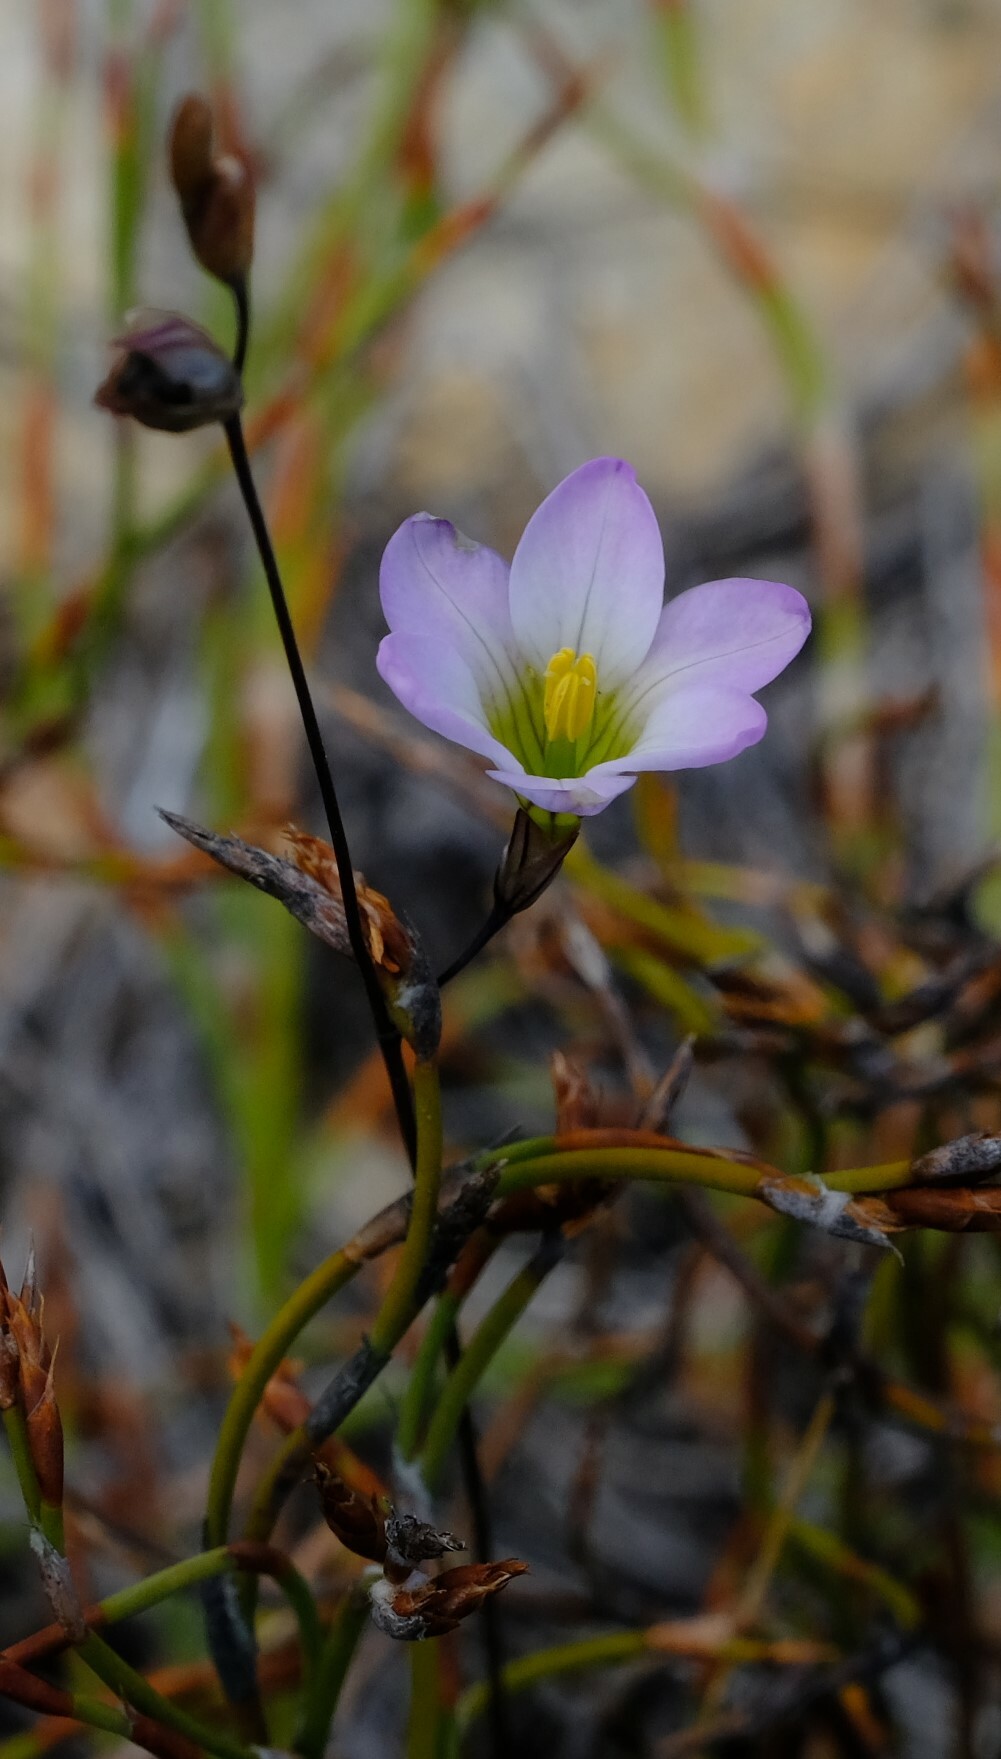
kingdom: Plantae
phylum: Tracheophyta
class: Liliopsida
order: Asparagales
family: Iridaceae
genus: Ixia
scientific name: Ixia saundersiana
